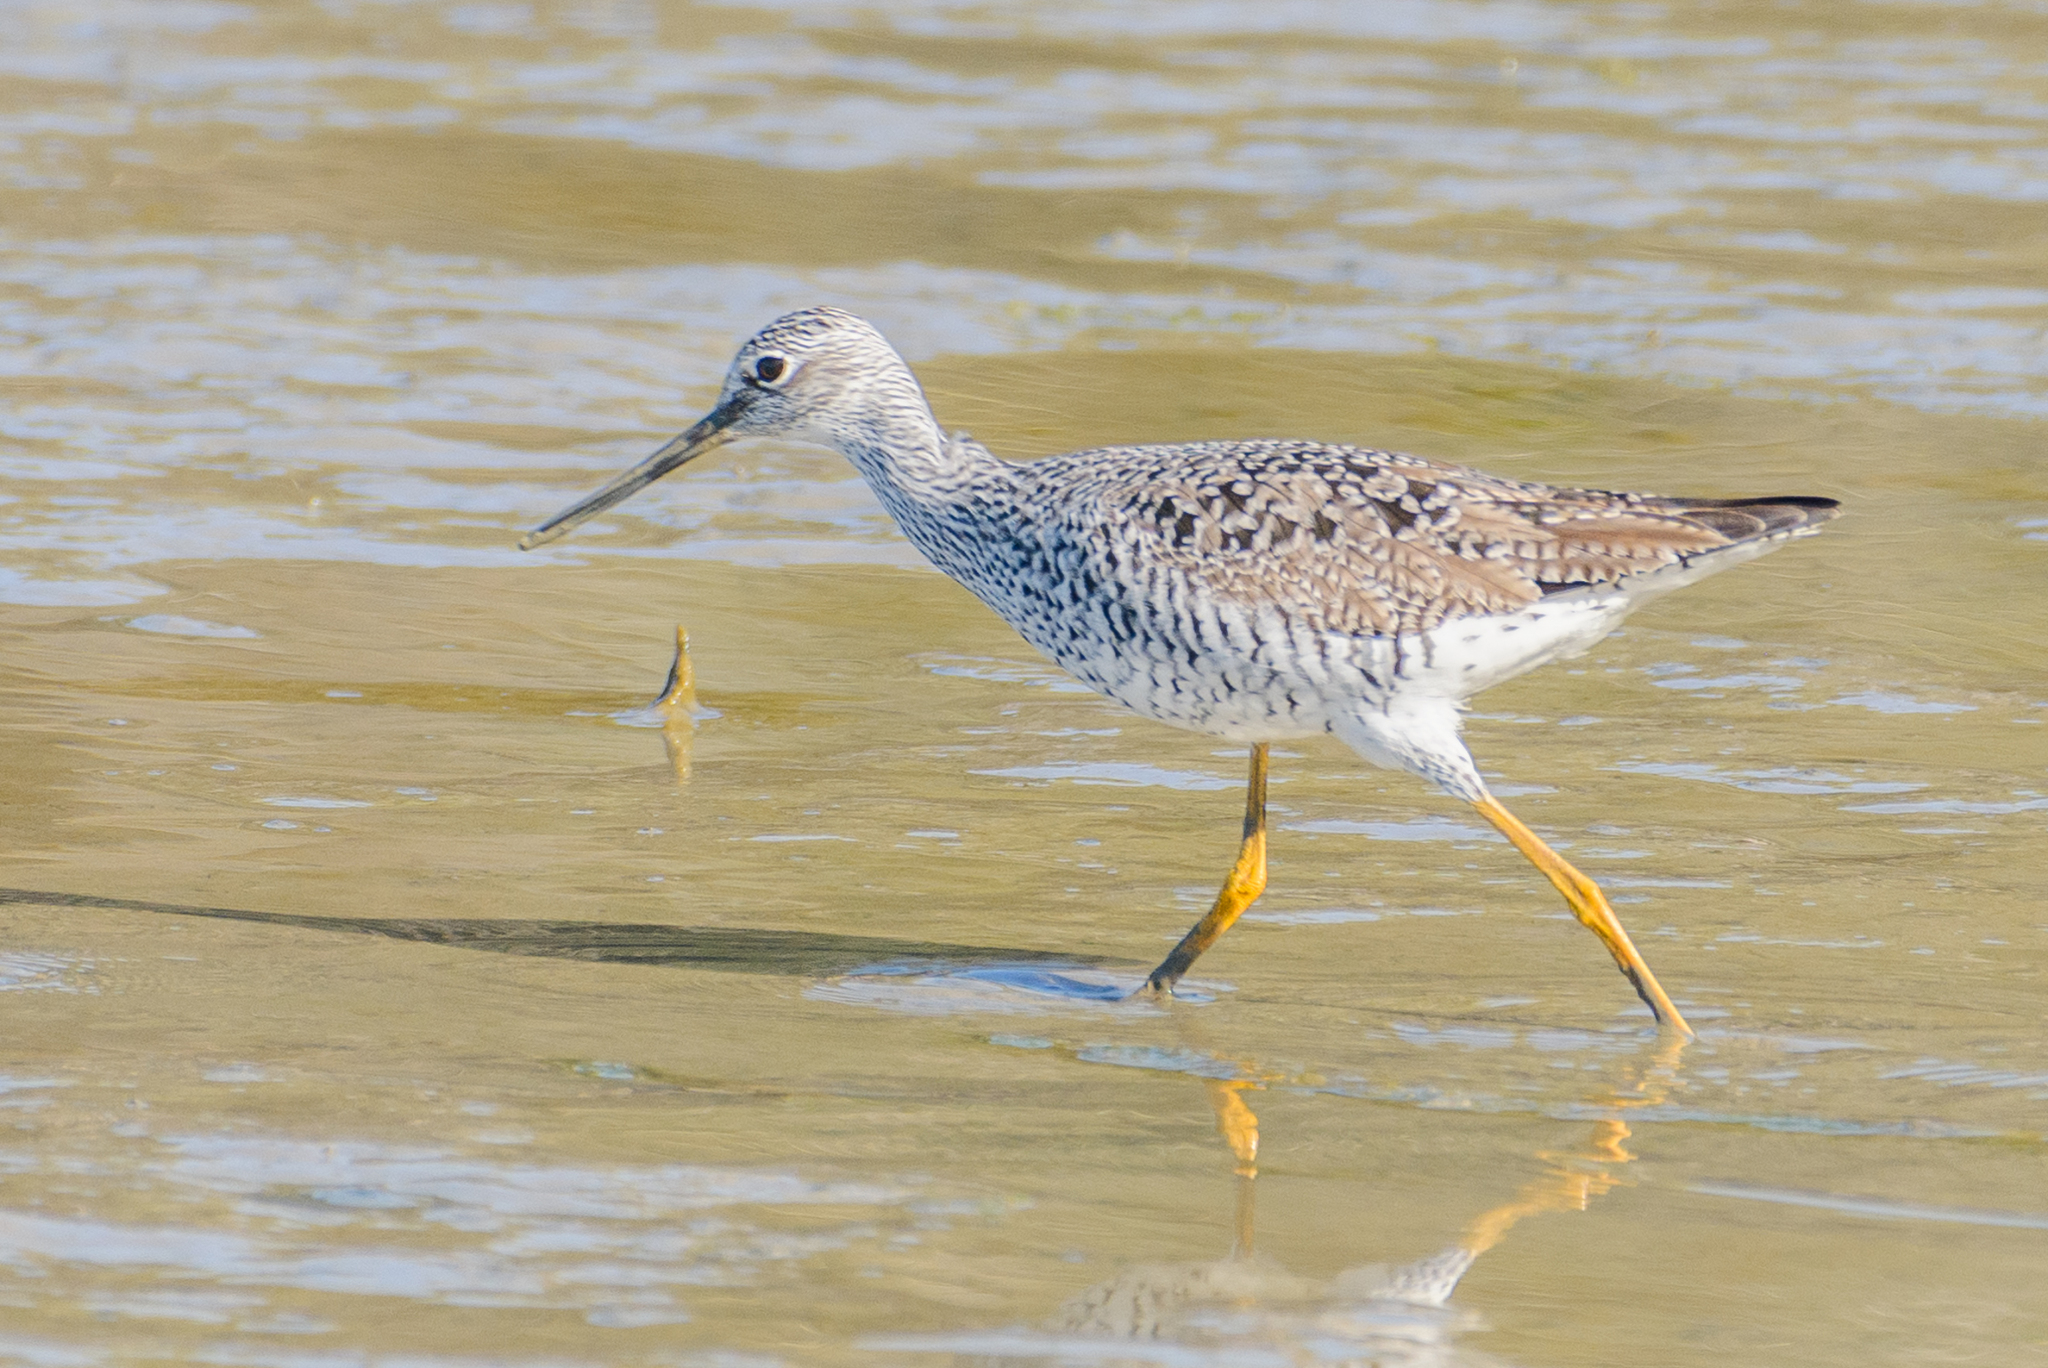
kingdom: Animalia
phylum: Chordata
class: Aves
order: Charadriiformes
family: Scolopacidae
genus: Tringa
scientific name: Tringa melanoleuca
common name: Greater yellowlegs
